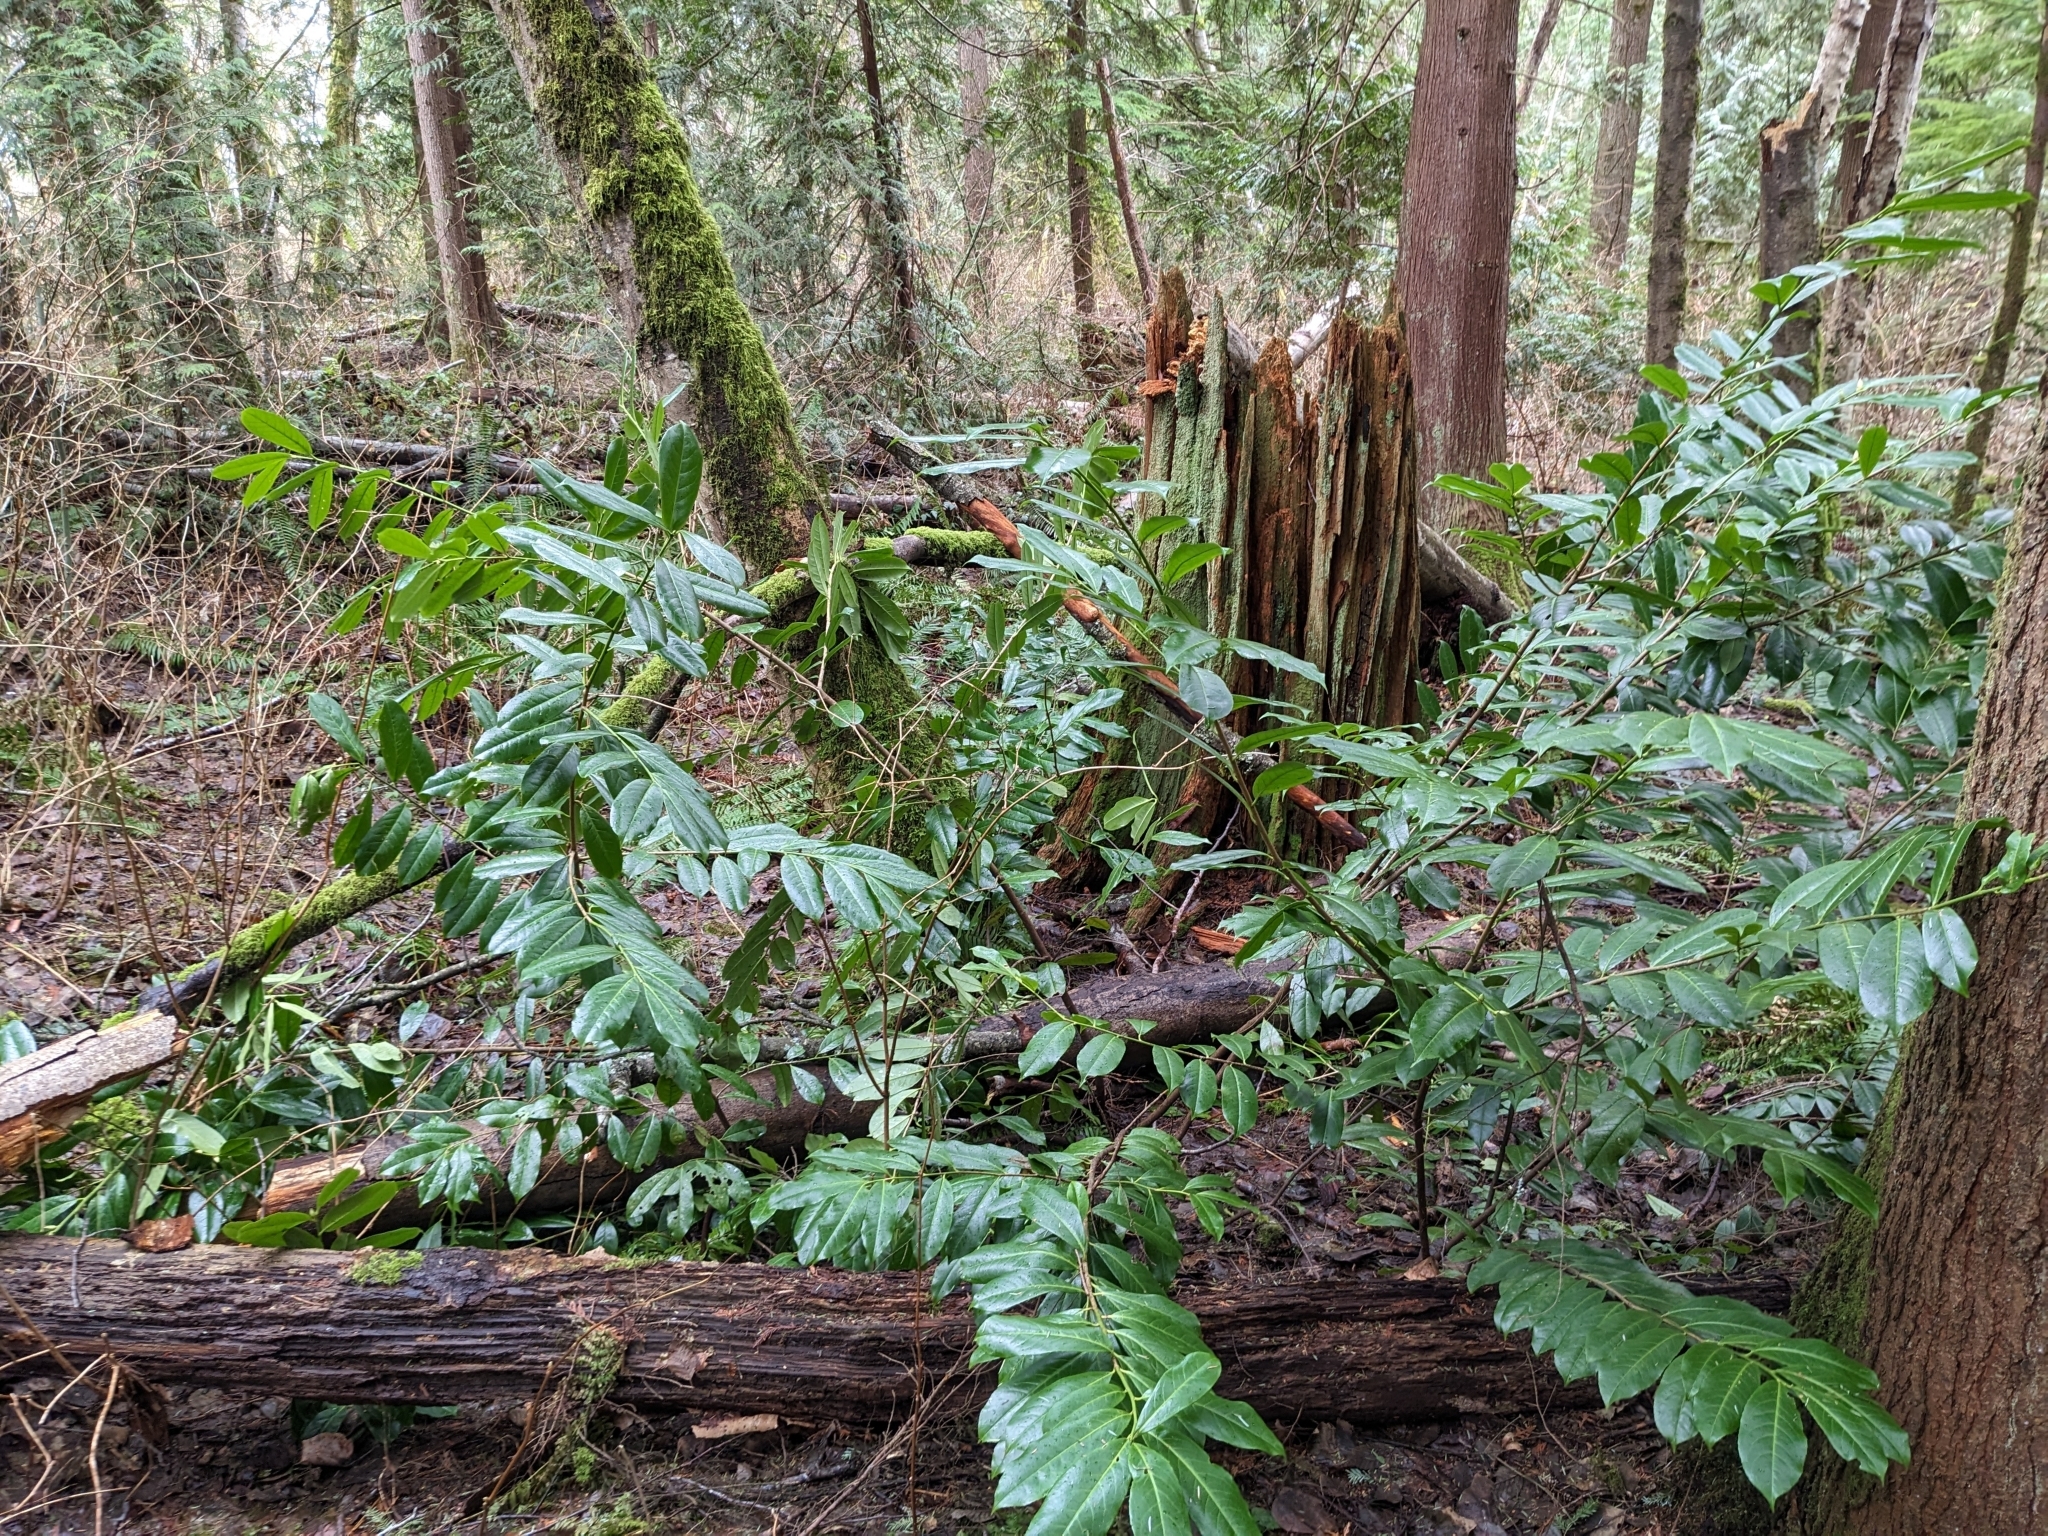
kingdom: Plantae
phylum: Tracheophyta
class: Magnoliopsida
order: Rosales
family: Rosaceae
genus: Prunus
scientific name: Prunus laurocerasus
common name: Cherry laurel
